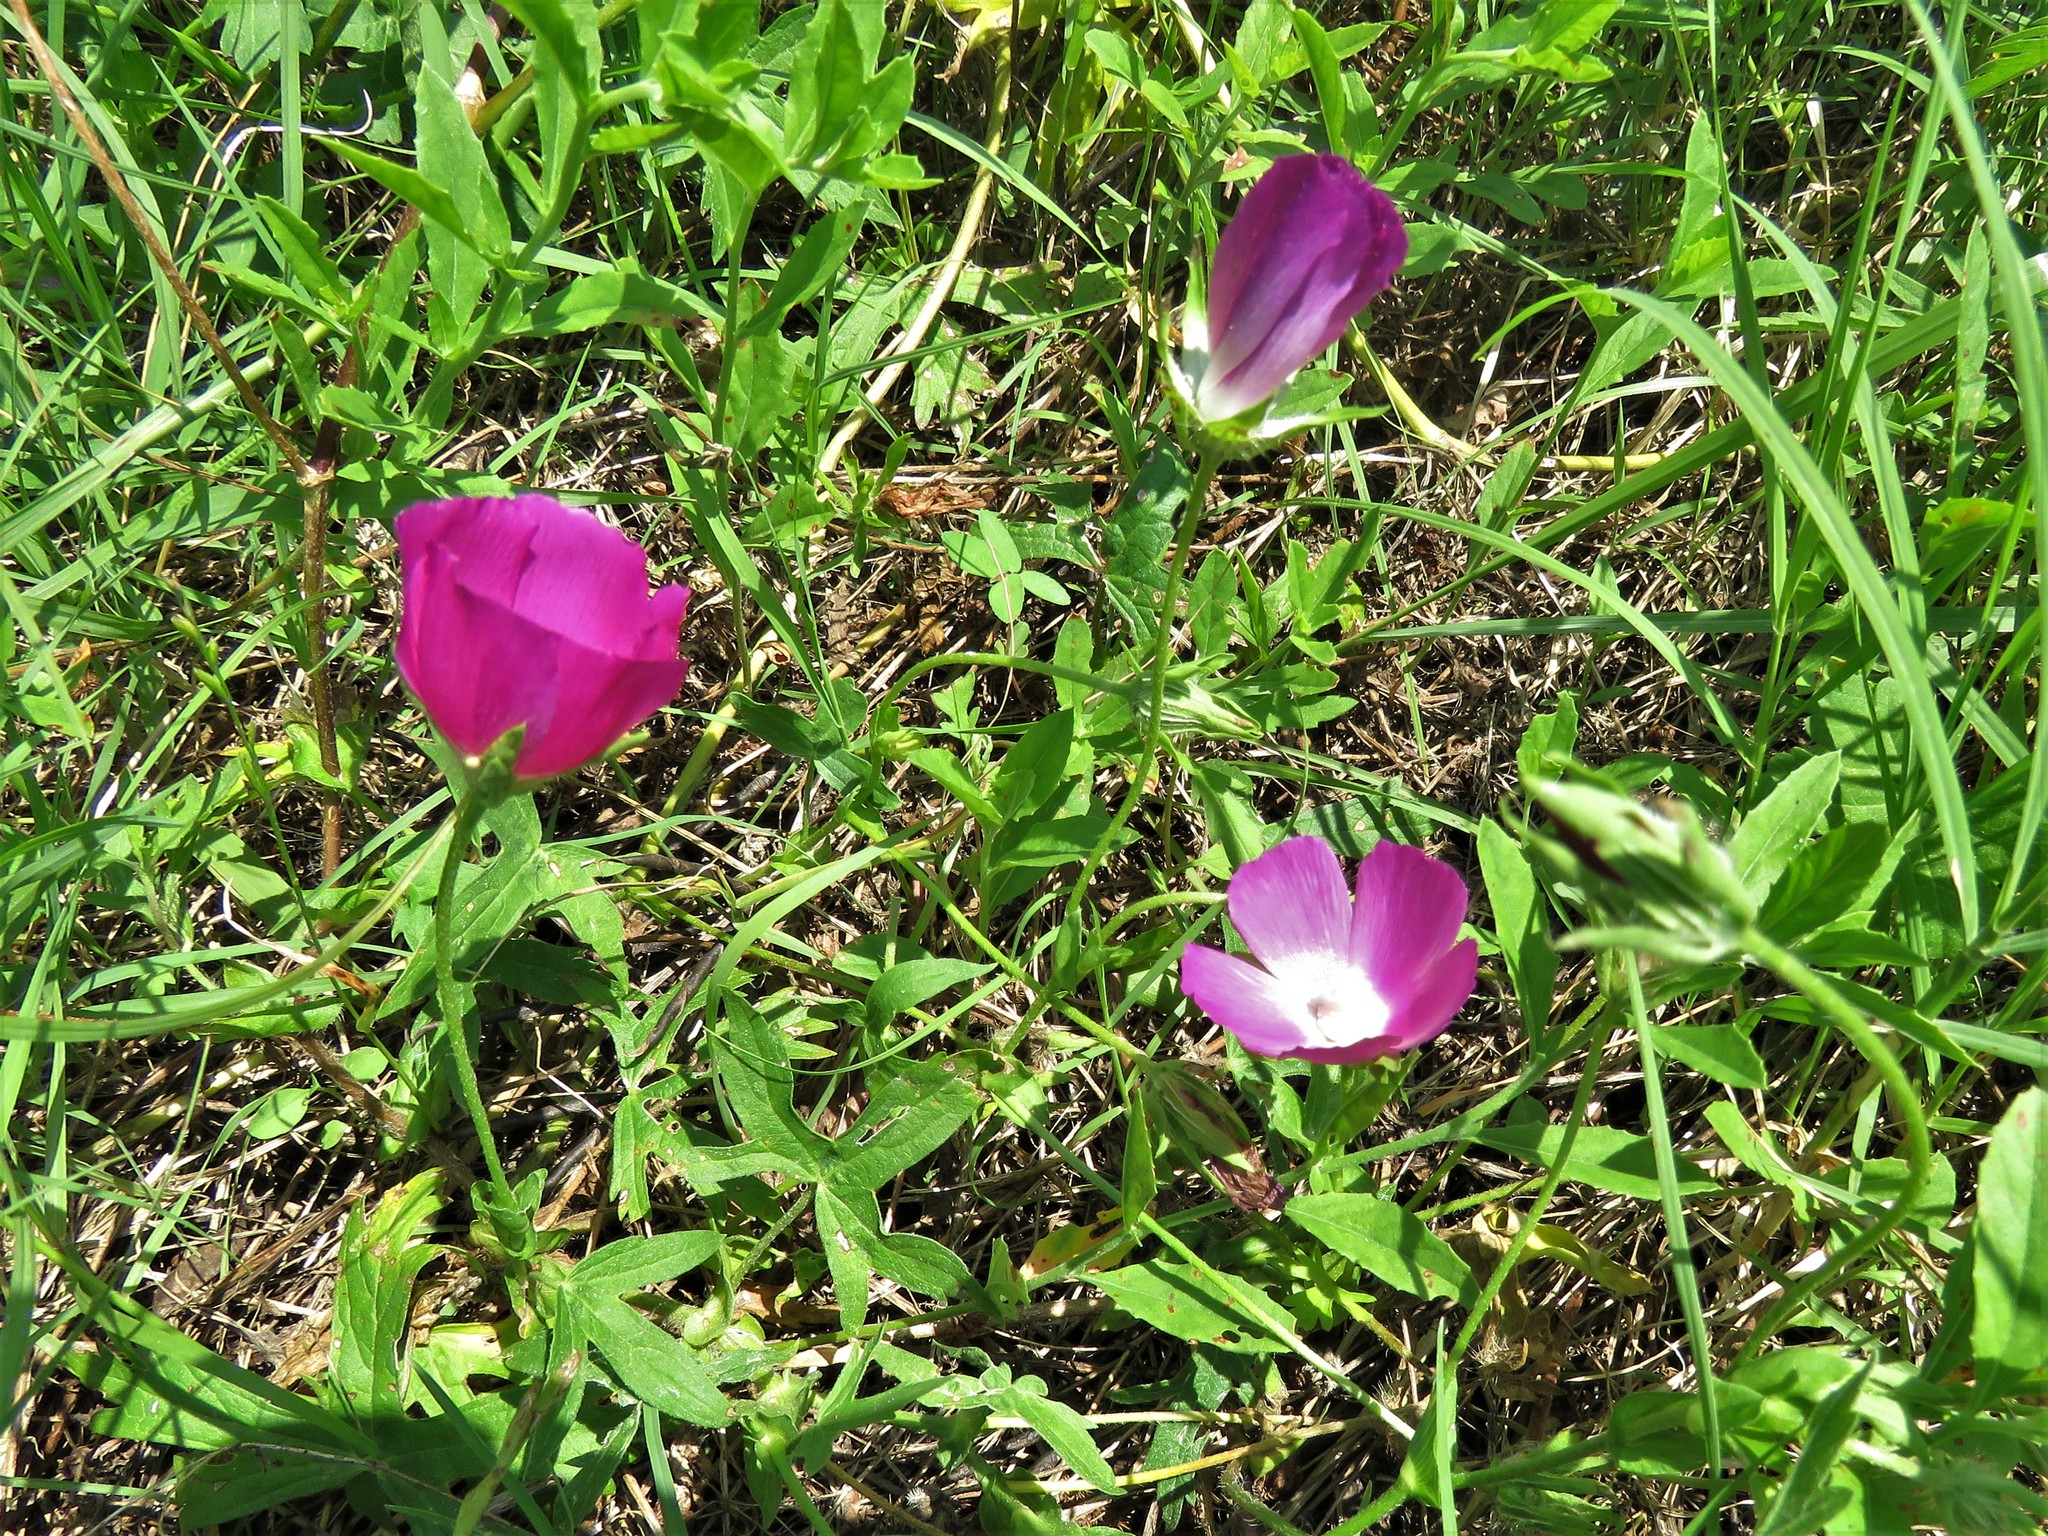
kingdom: Plantae
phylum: Tracheophyta
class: Magnoliopsida
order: Malvales
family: Malvaceae
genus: Callirhoe
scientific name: Callirhoe involucrata
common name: Purple poppy-mallow
